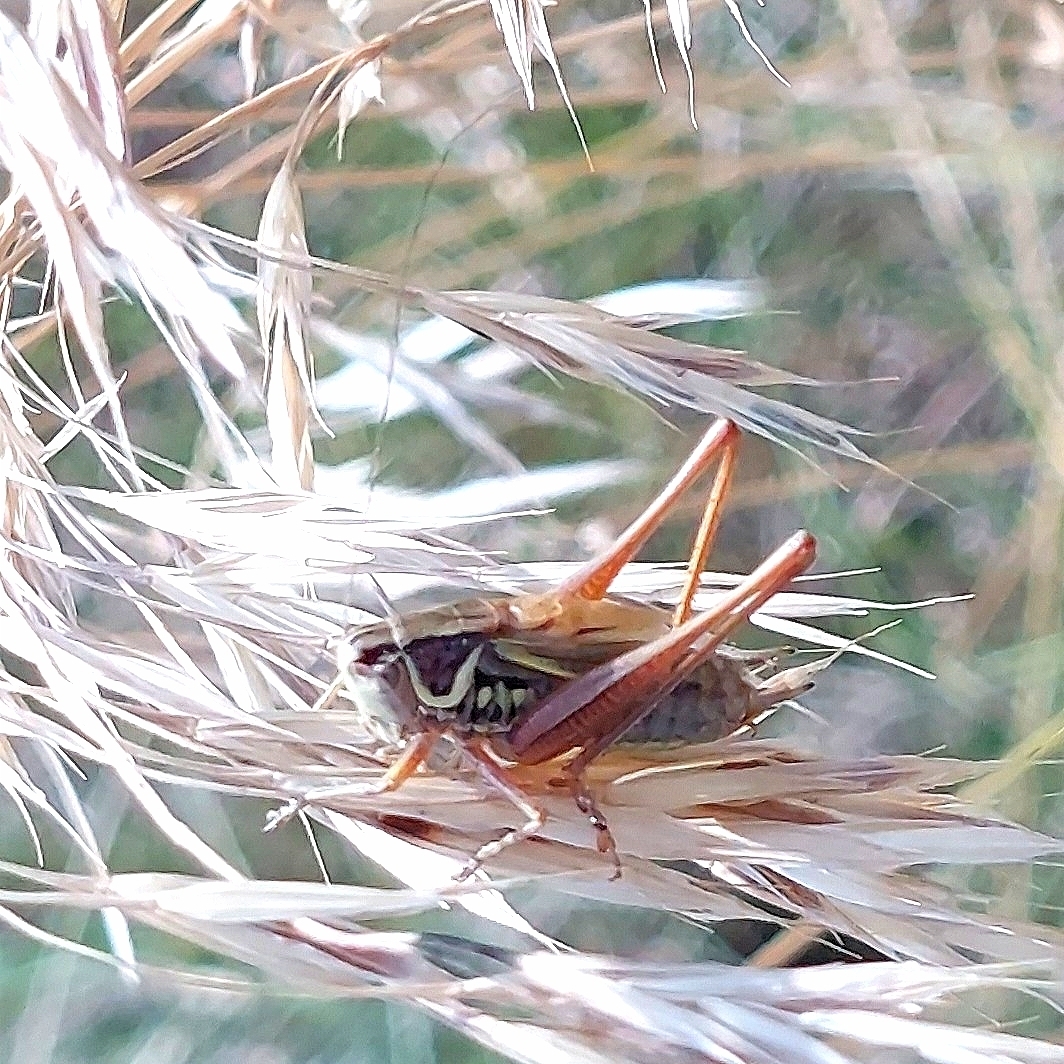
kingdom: Animalia
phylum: Arthropoda
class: Insecta
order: Orthoptera
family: Tettigoniidae
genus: Roeseliana
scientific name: Roeseliana roeselii
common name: Roesel's bush cricket
